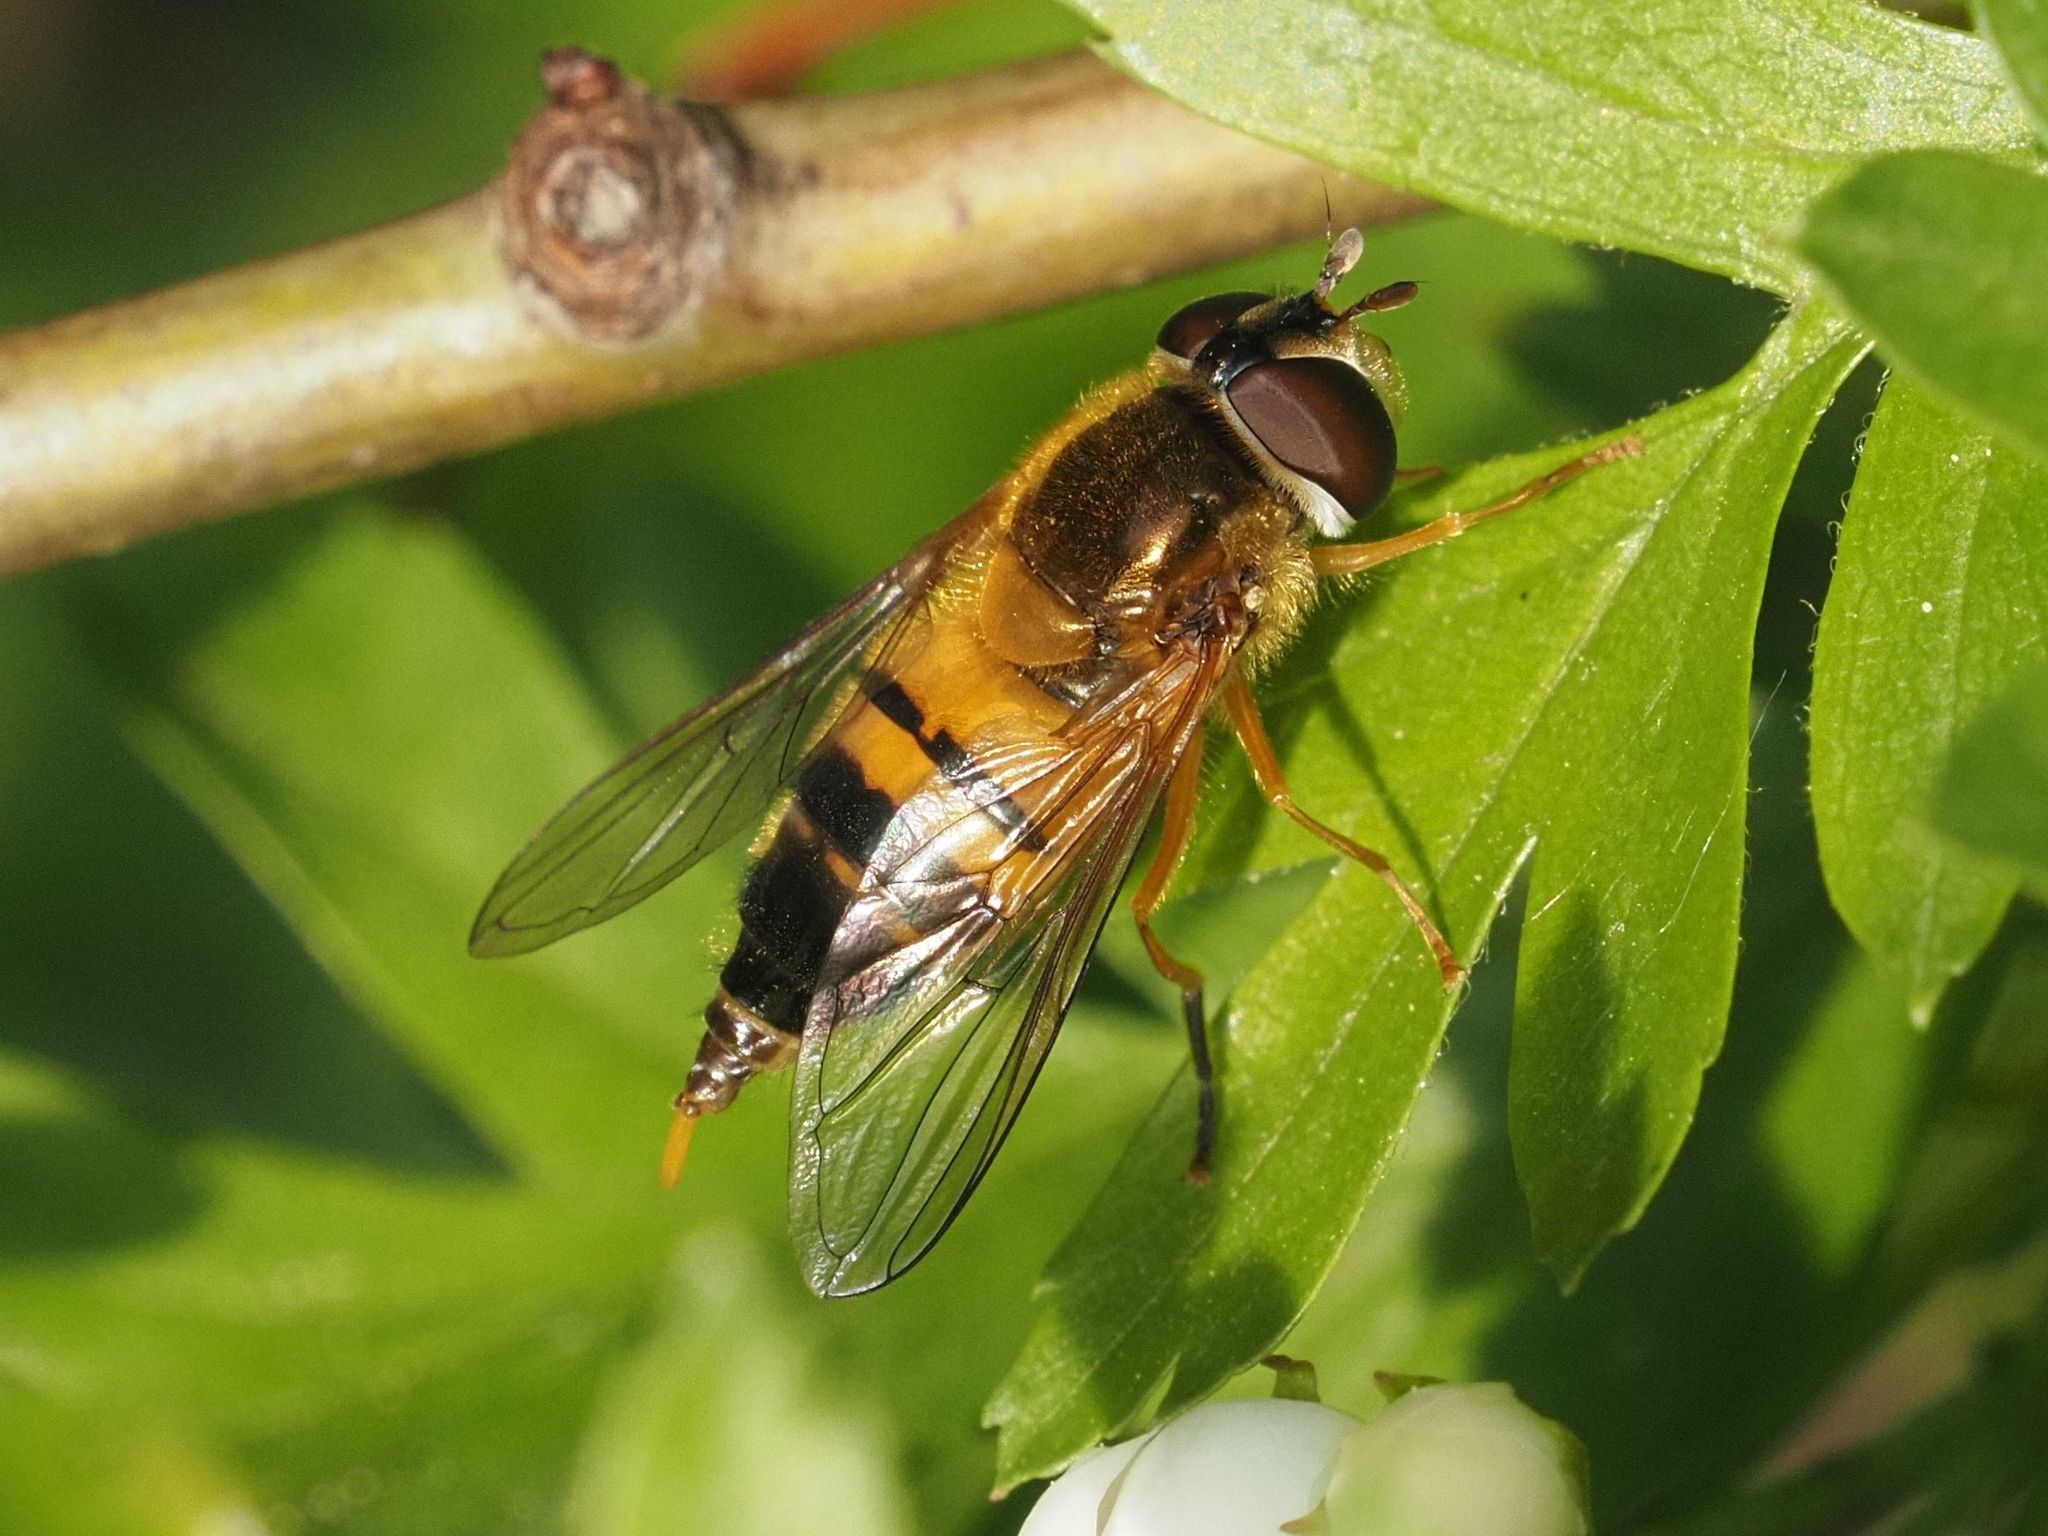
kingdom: Animalia
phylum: Arthropoda
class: Insecta
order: Diptera
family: Syrphidae
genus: Epistrophe
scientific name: Epistrophe eligans
